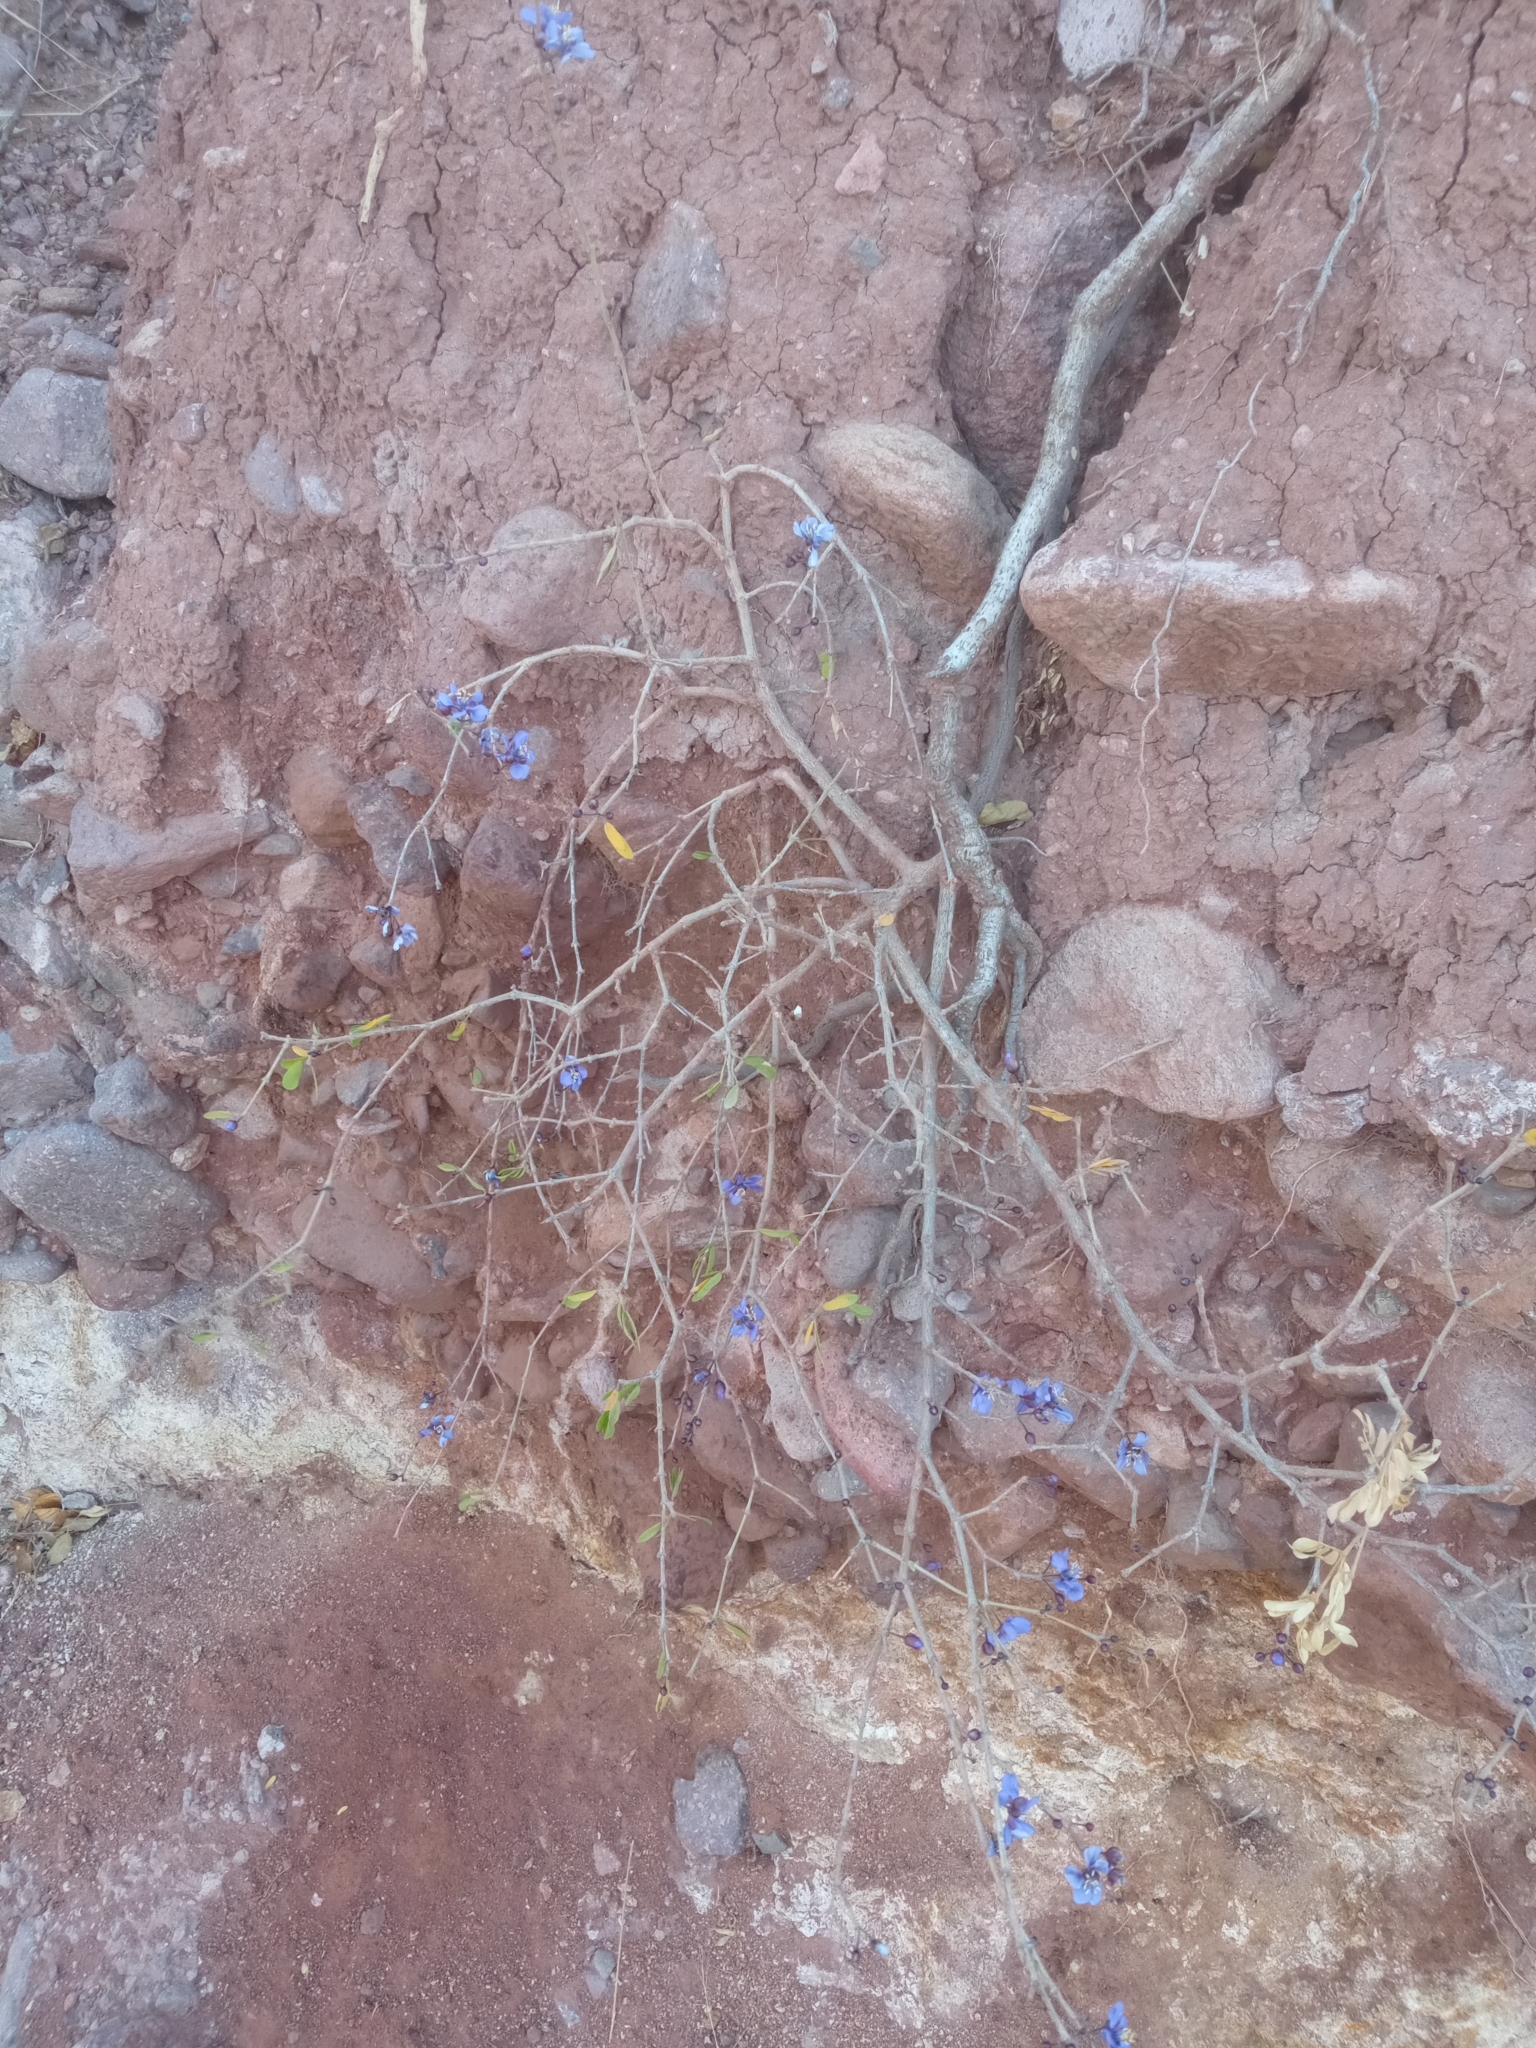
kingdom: Plantae
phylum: Tracheophyta
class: Magnoliopsida
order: Zygophyllales
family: Zygophyllaceae
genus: Guaiacum
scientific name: Guaiacum coulteri
